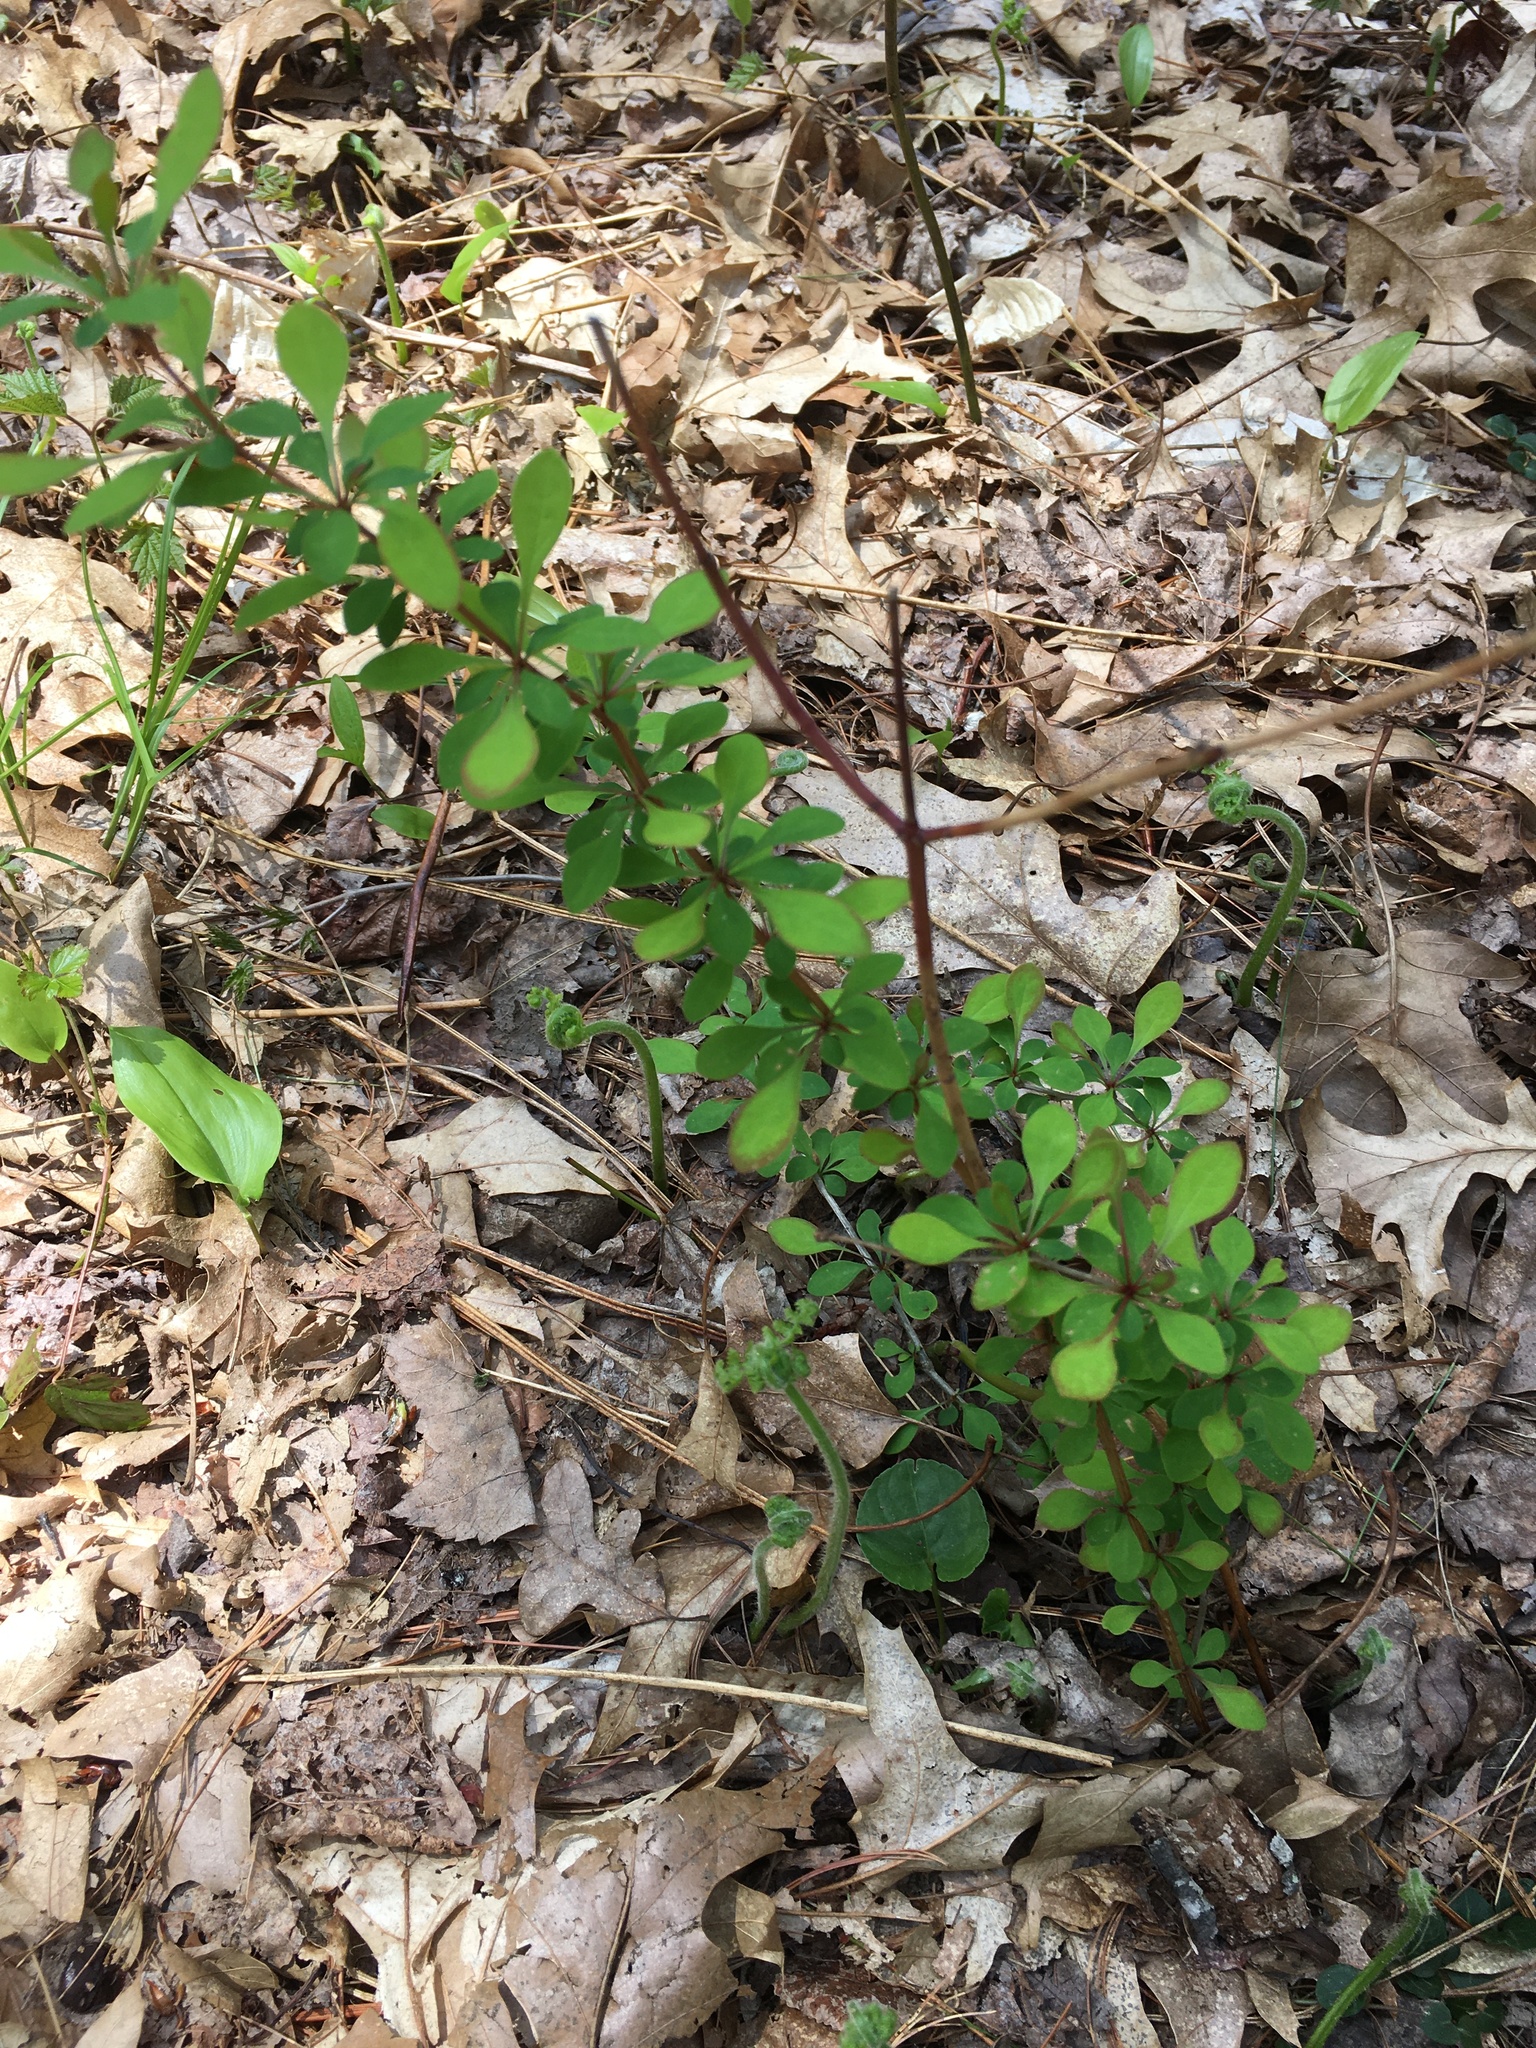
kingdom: Plantae
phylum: Tracheophyta
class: Magnoliopsida
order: Ranunculales
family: Berberidaceae
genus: Berberis
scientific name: Berberis thunbergii
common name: Japanese barberry
